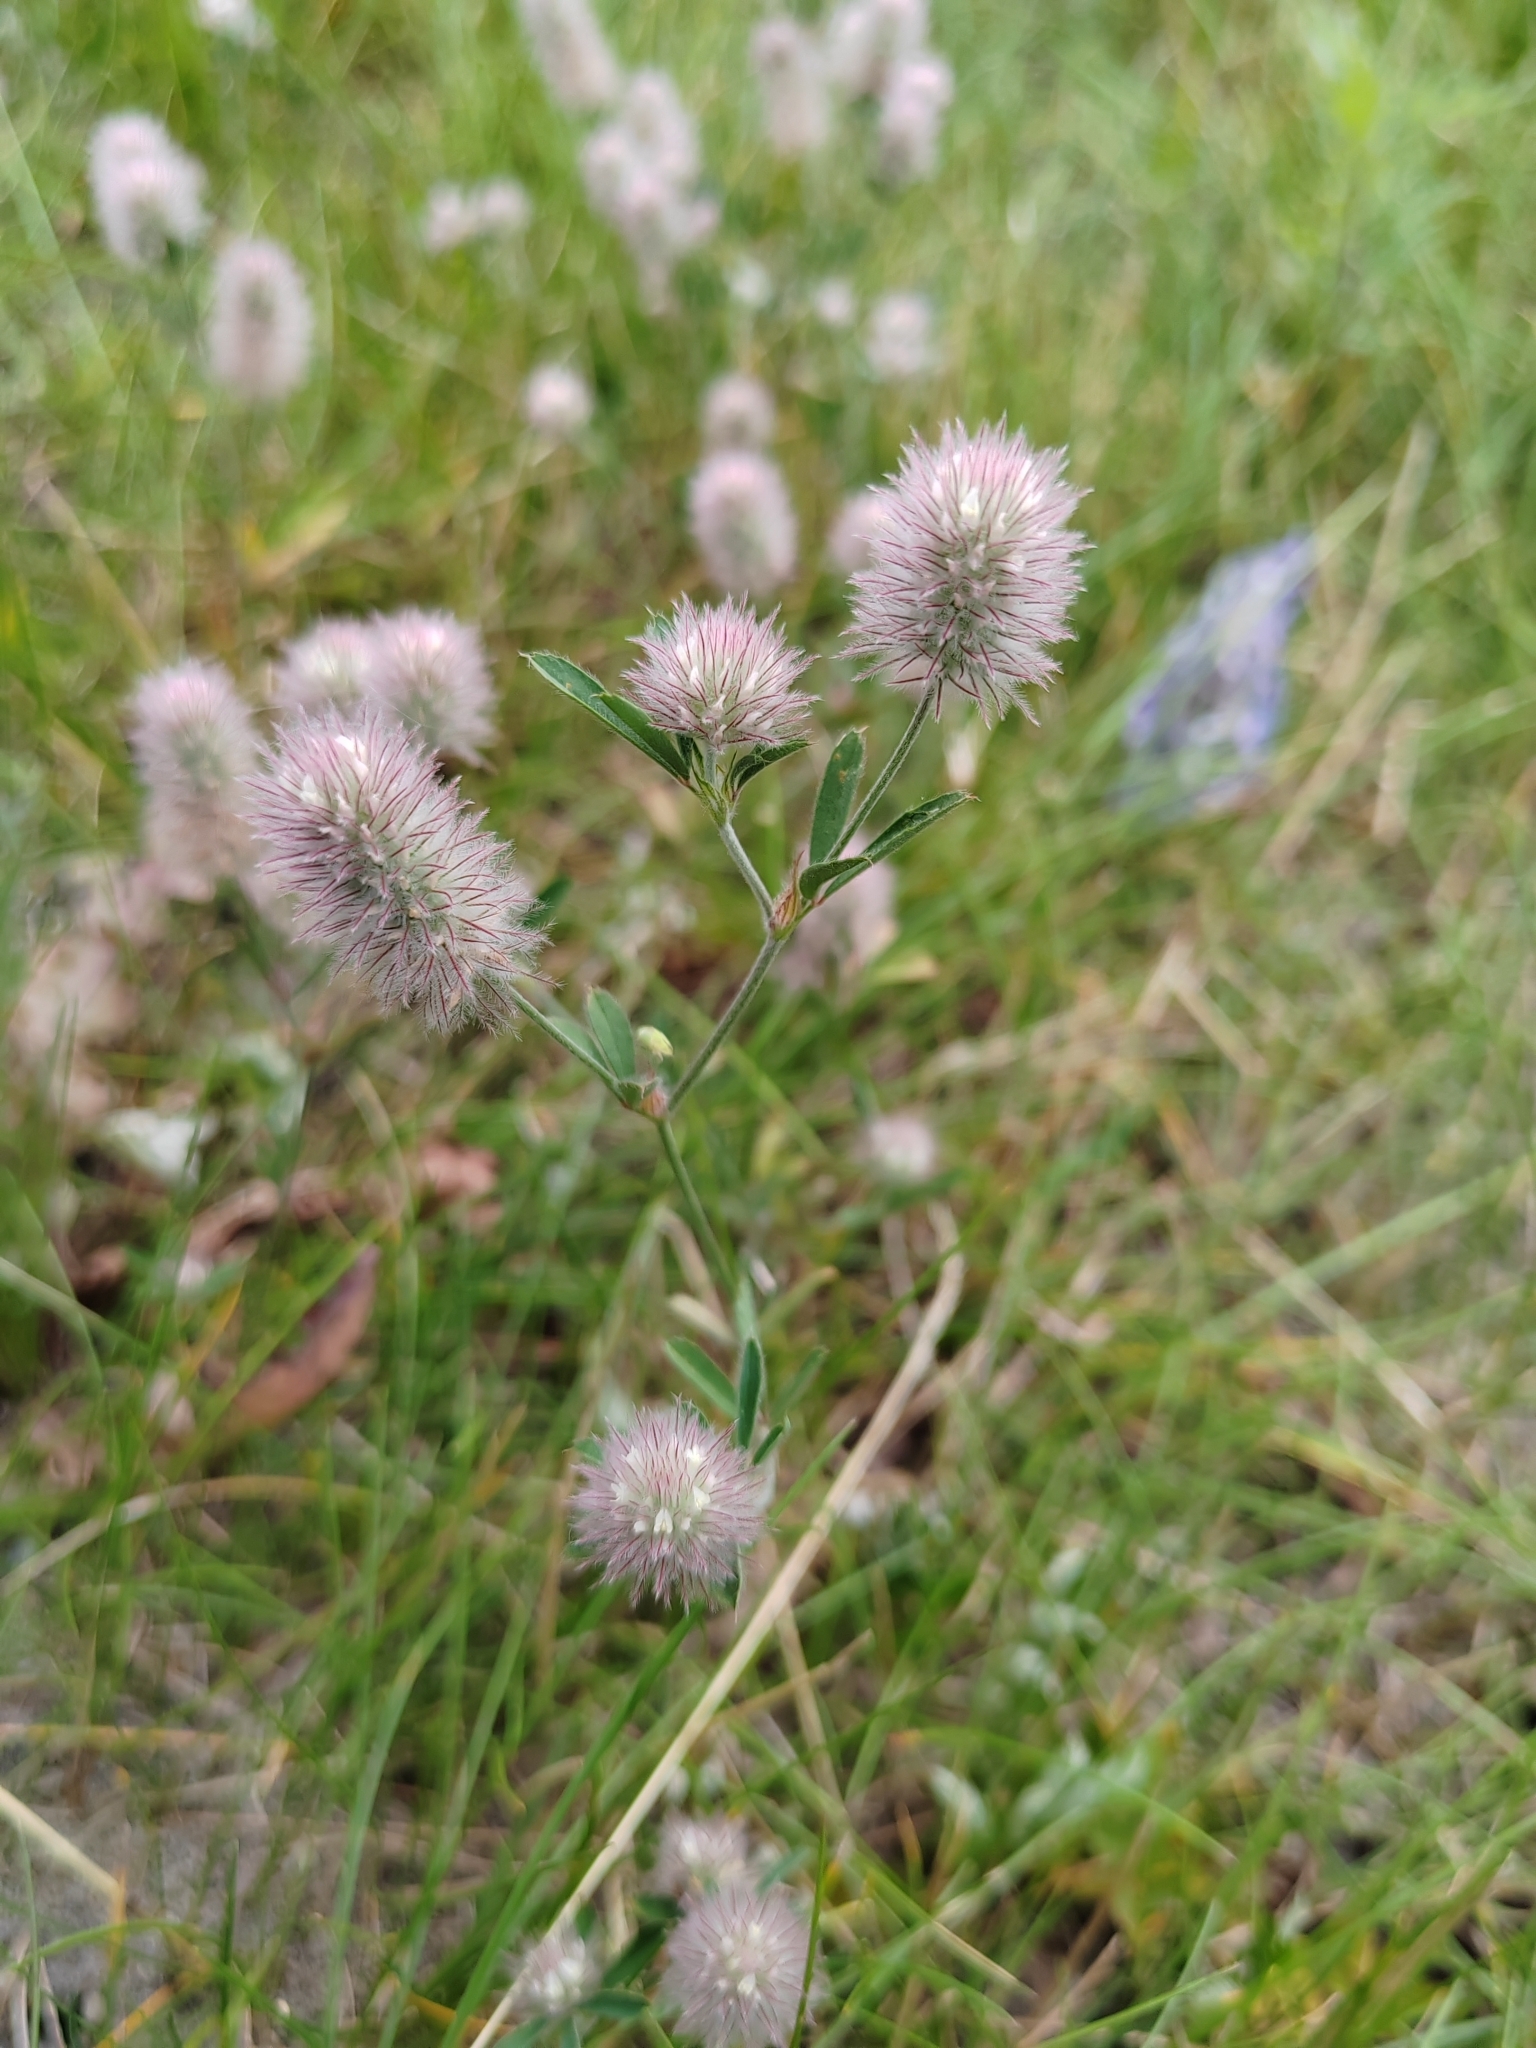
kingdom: Plantae
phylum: Tracheophyta
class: Magnoliopsida
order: Fabales
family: Fabaceae
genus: Trifolium
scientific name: Trifolium arvense
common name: Hare's-foot clover
